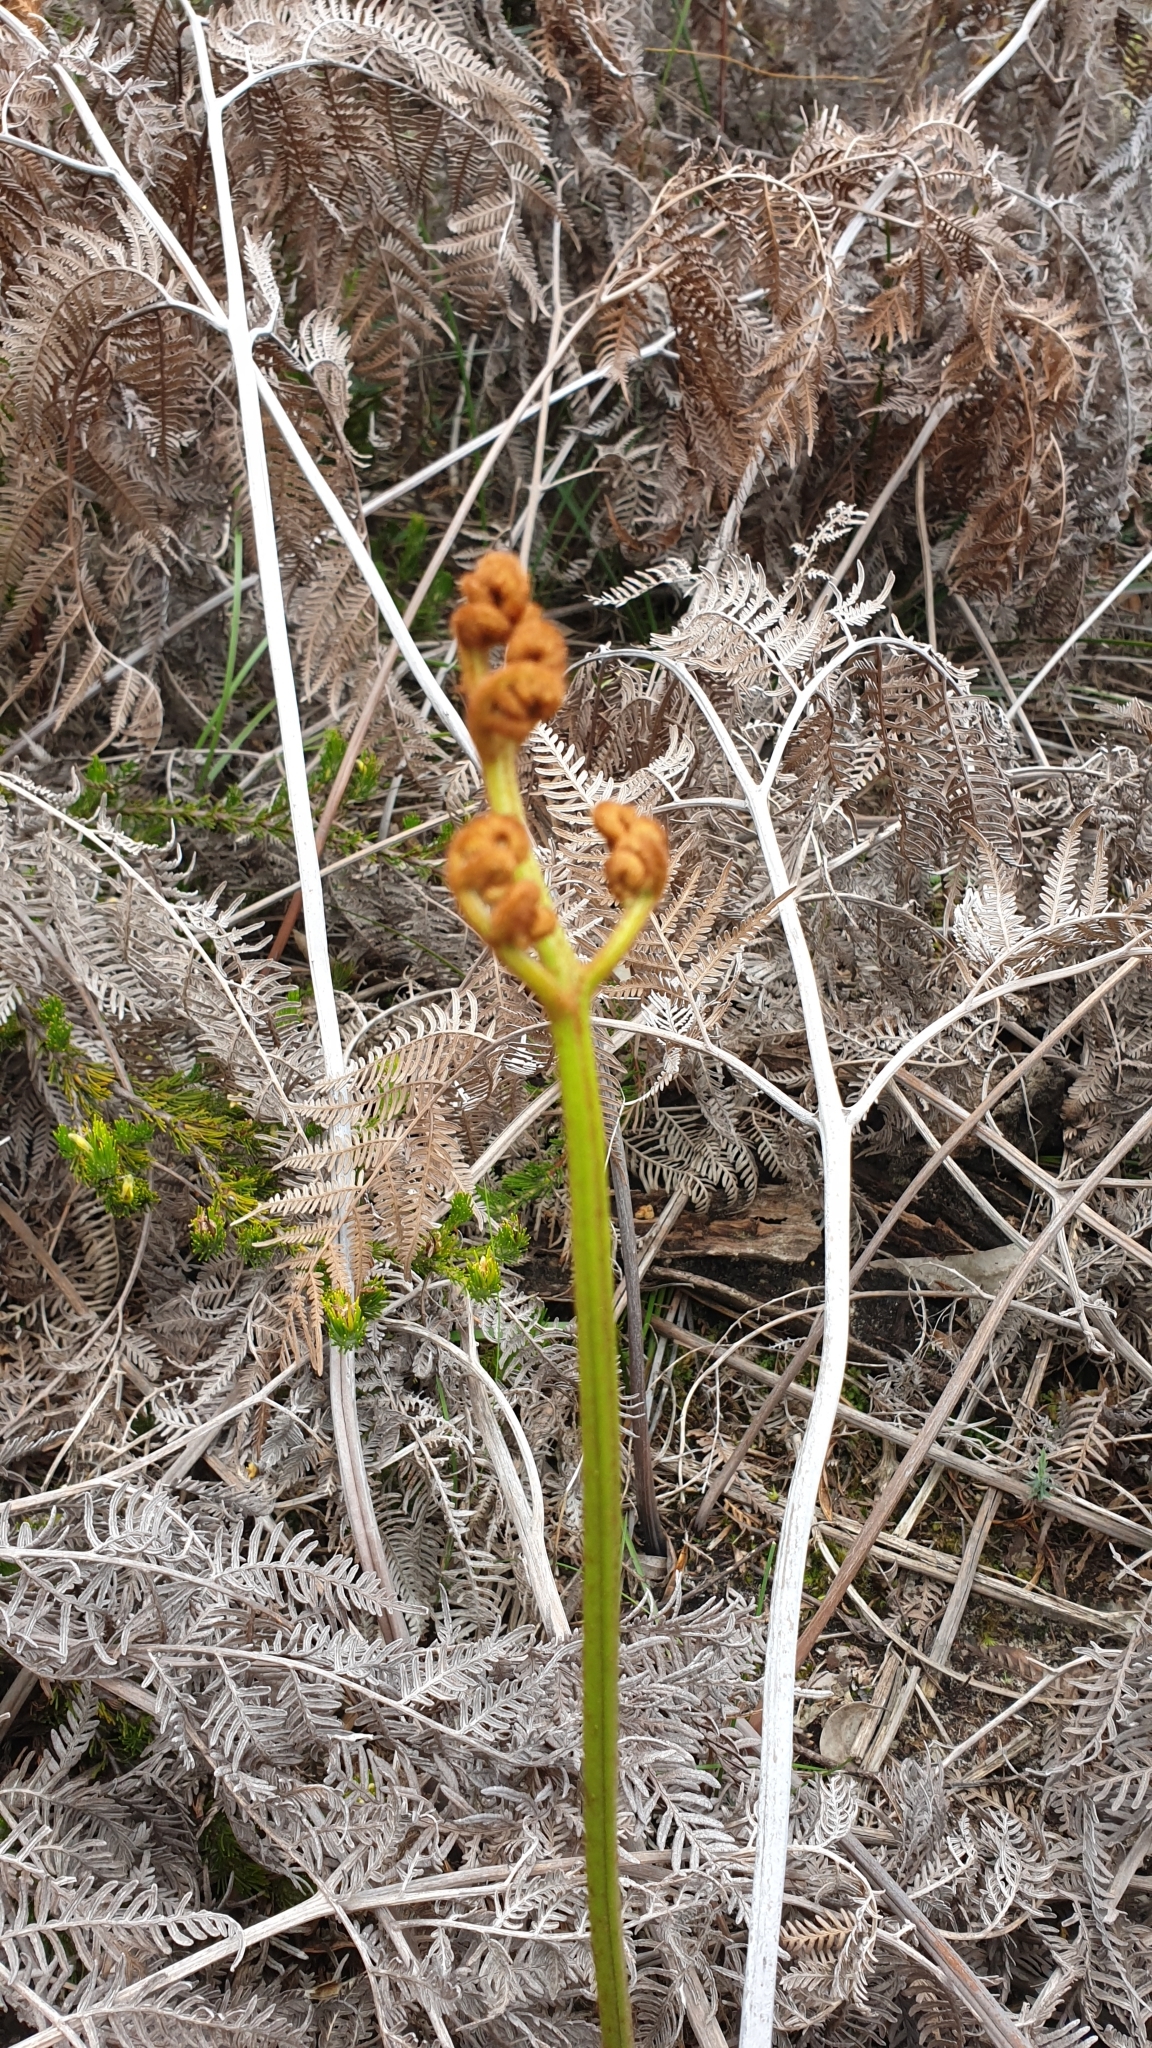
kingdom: Plantae
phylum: Tracheophyta
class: Polypodiopsida
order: Polypodiales
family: Dennstaedtiaceae
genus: Pteridium
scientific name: Pteridium esculentum
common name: Bracken fern
